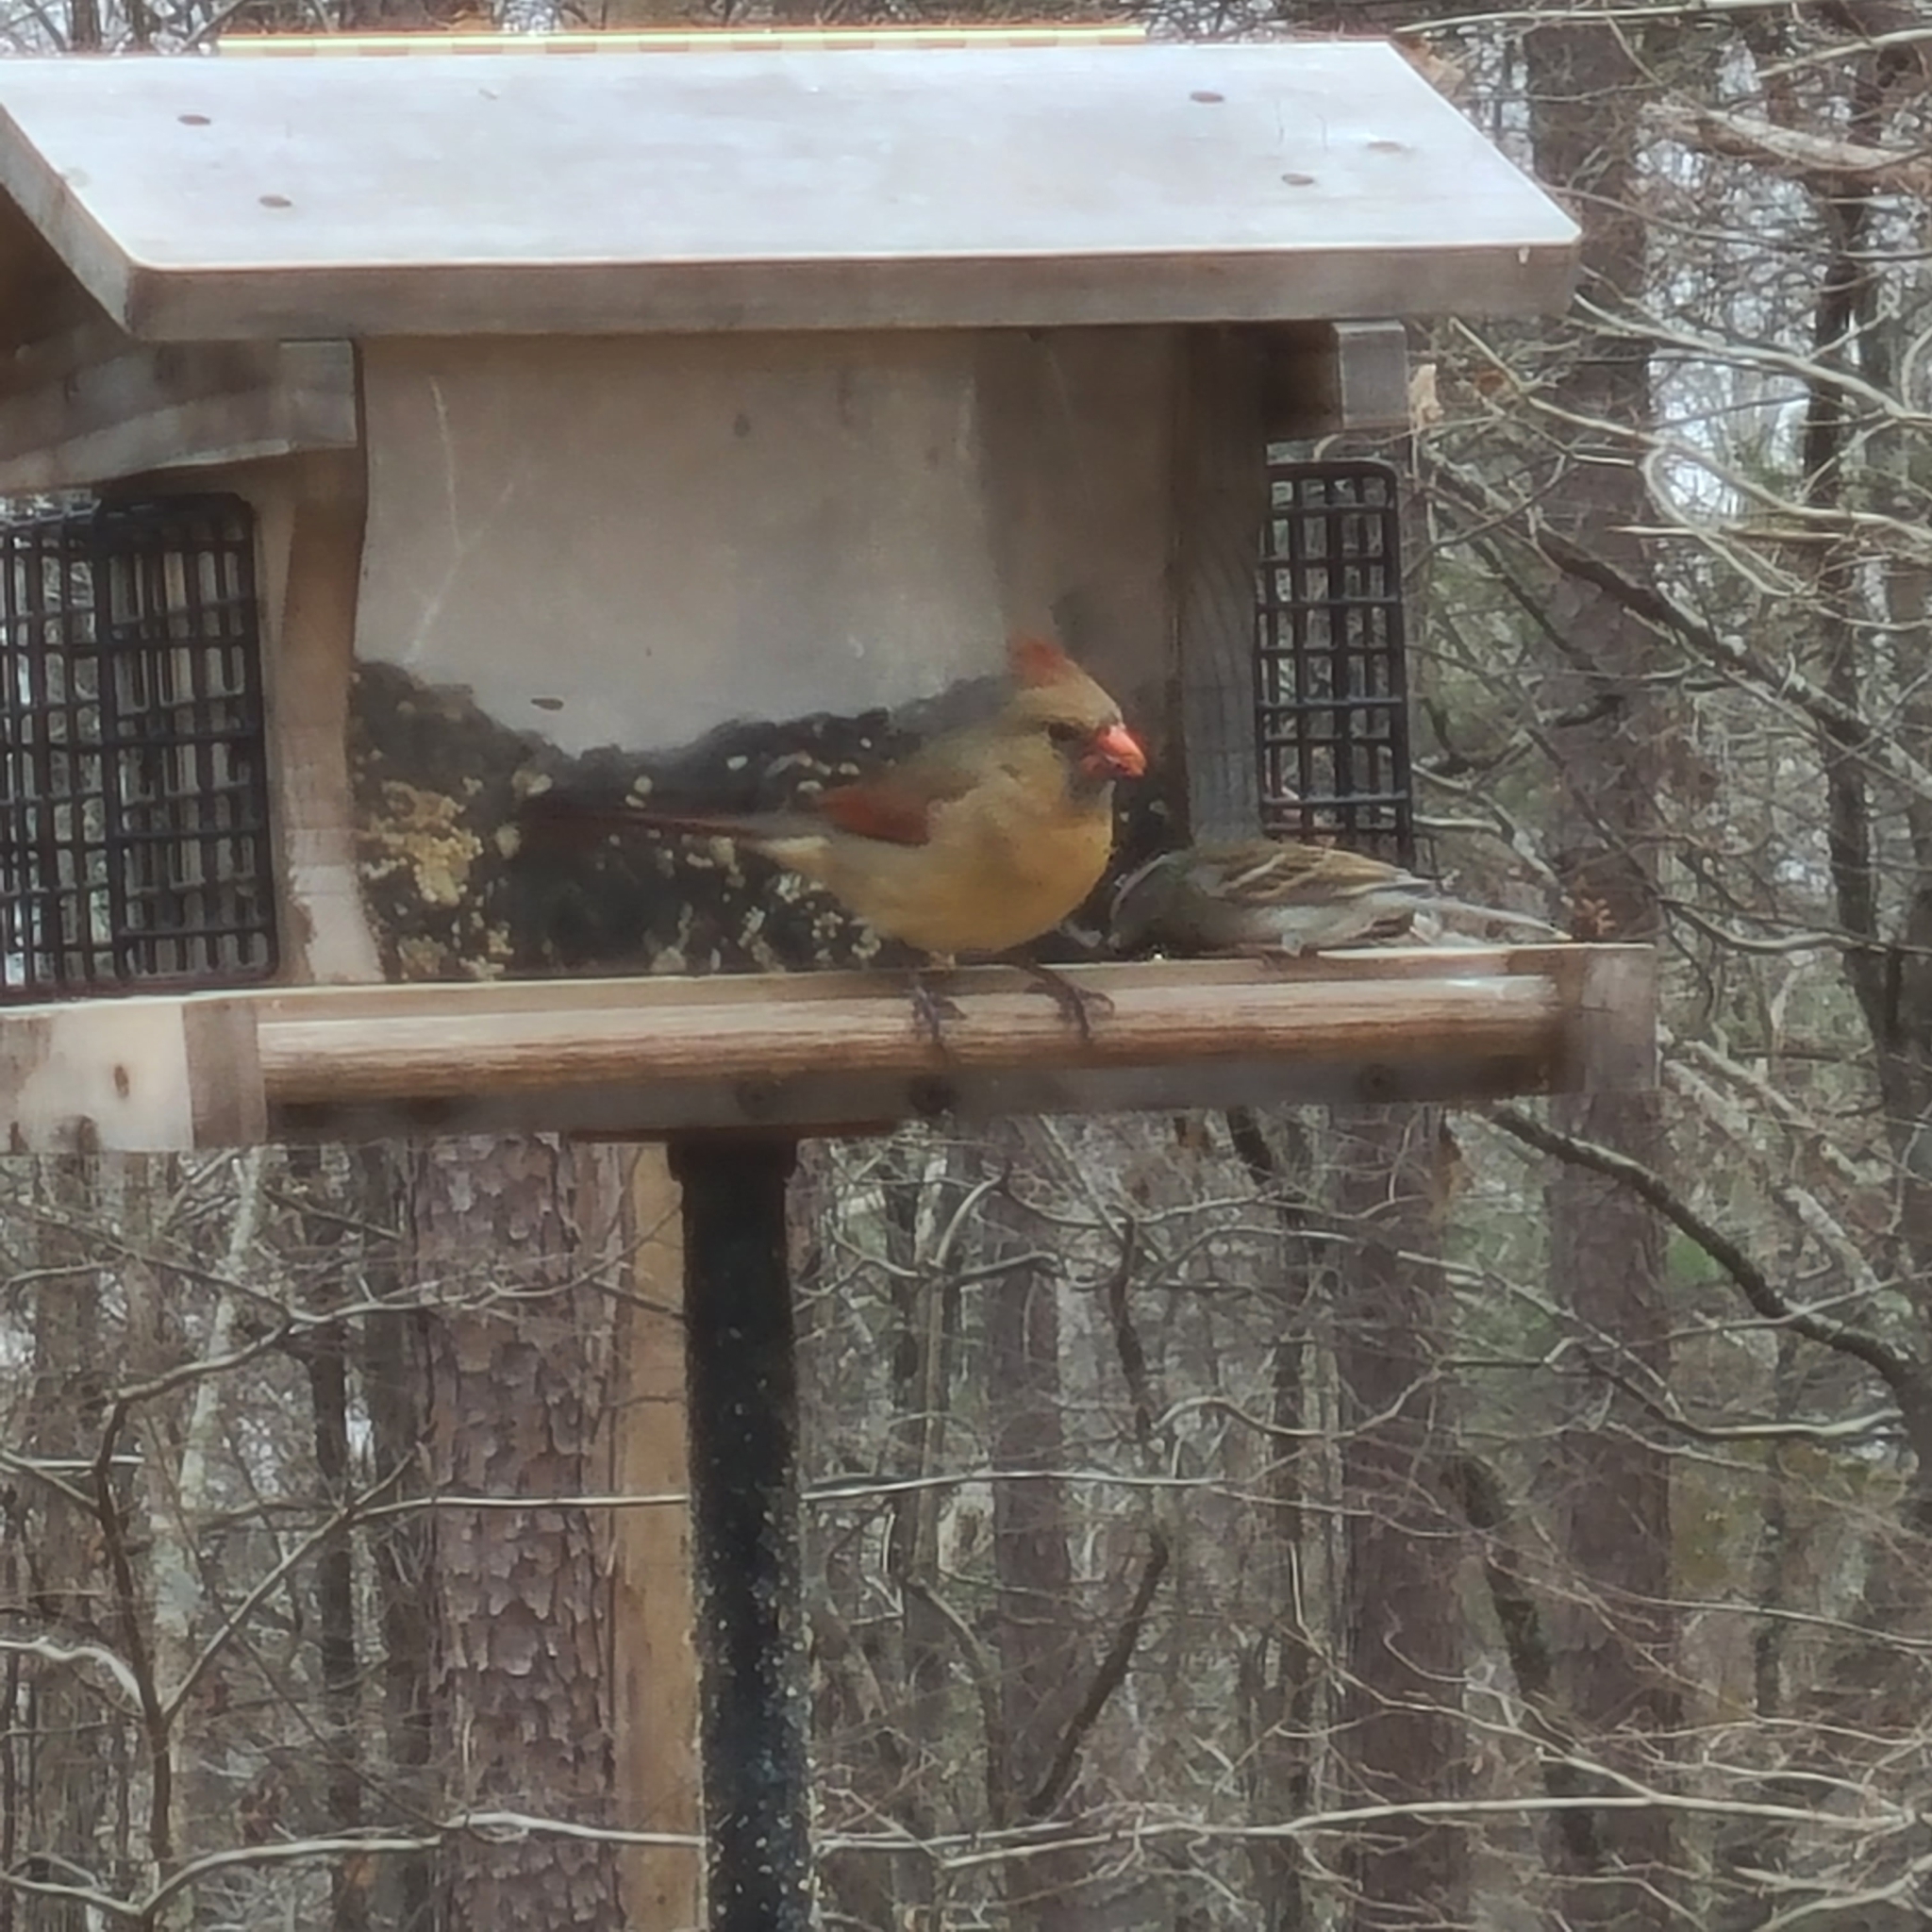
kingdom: Animalia
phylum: Chordata
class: Aves
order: Passeriformes
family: Cardinalidae
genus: Cardinalis
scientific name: Cardinalis cardinalis
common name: Northern cardinal
